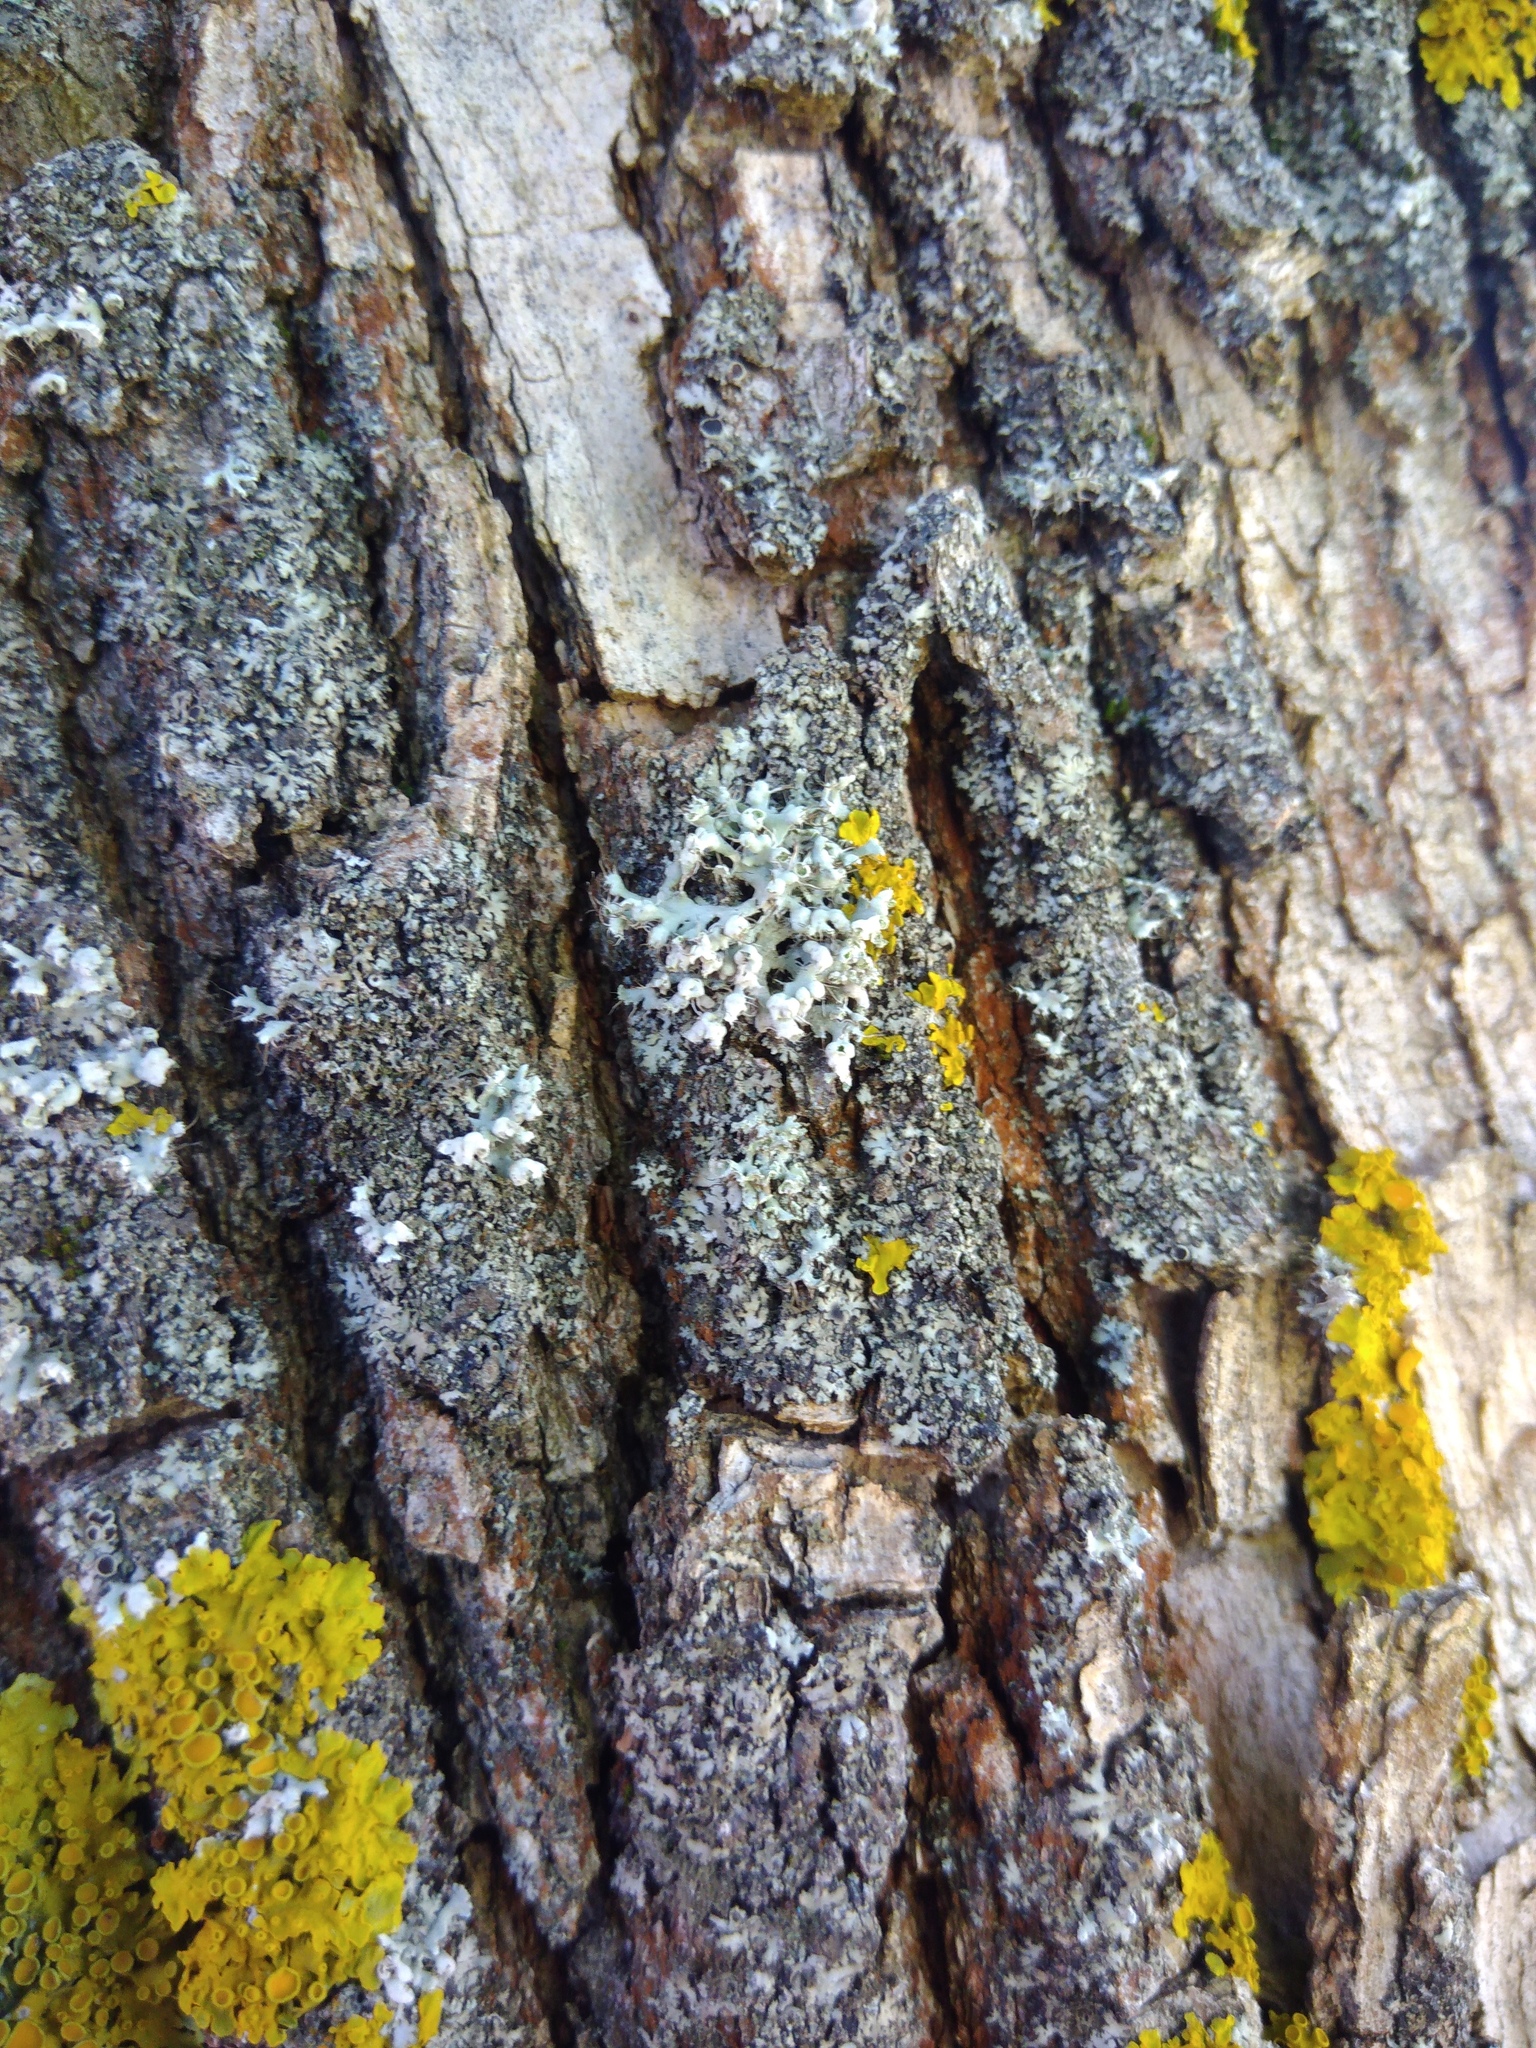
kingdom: Fungi
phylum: Ascomycota
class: Lecanoromycetes
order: Caliciales
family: Physciaceae
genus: Physcia
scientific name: Physcia adscendens
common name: Hooded rosette lichen
